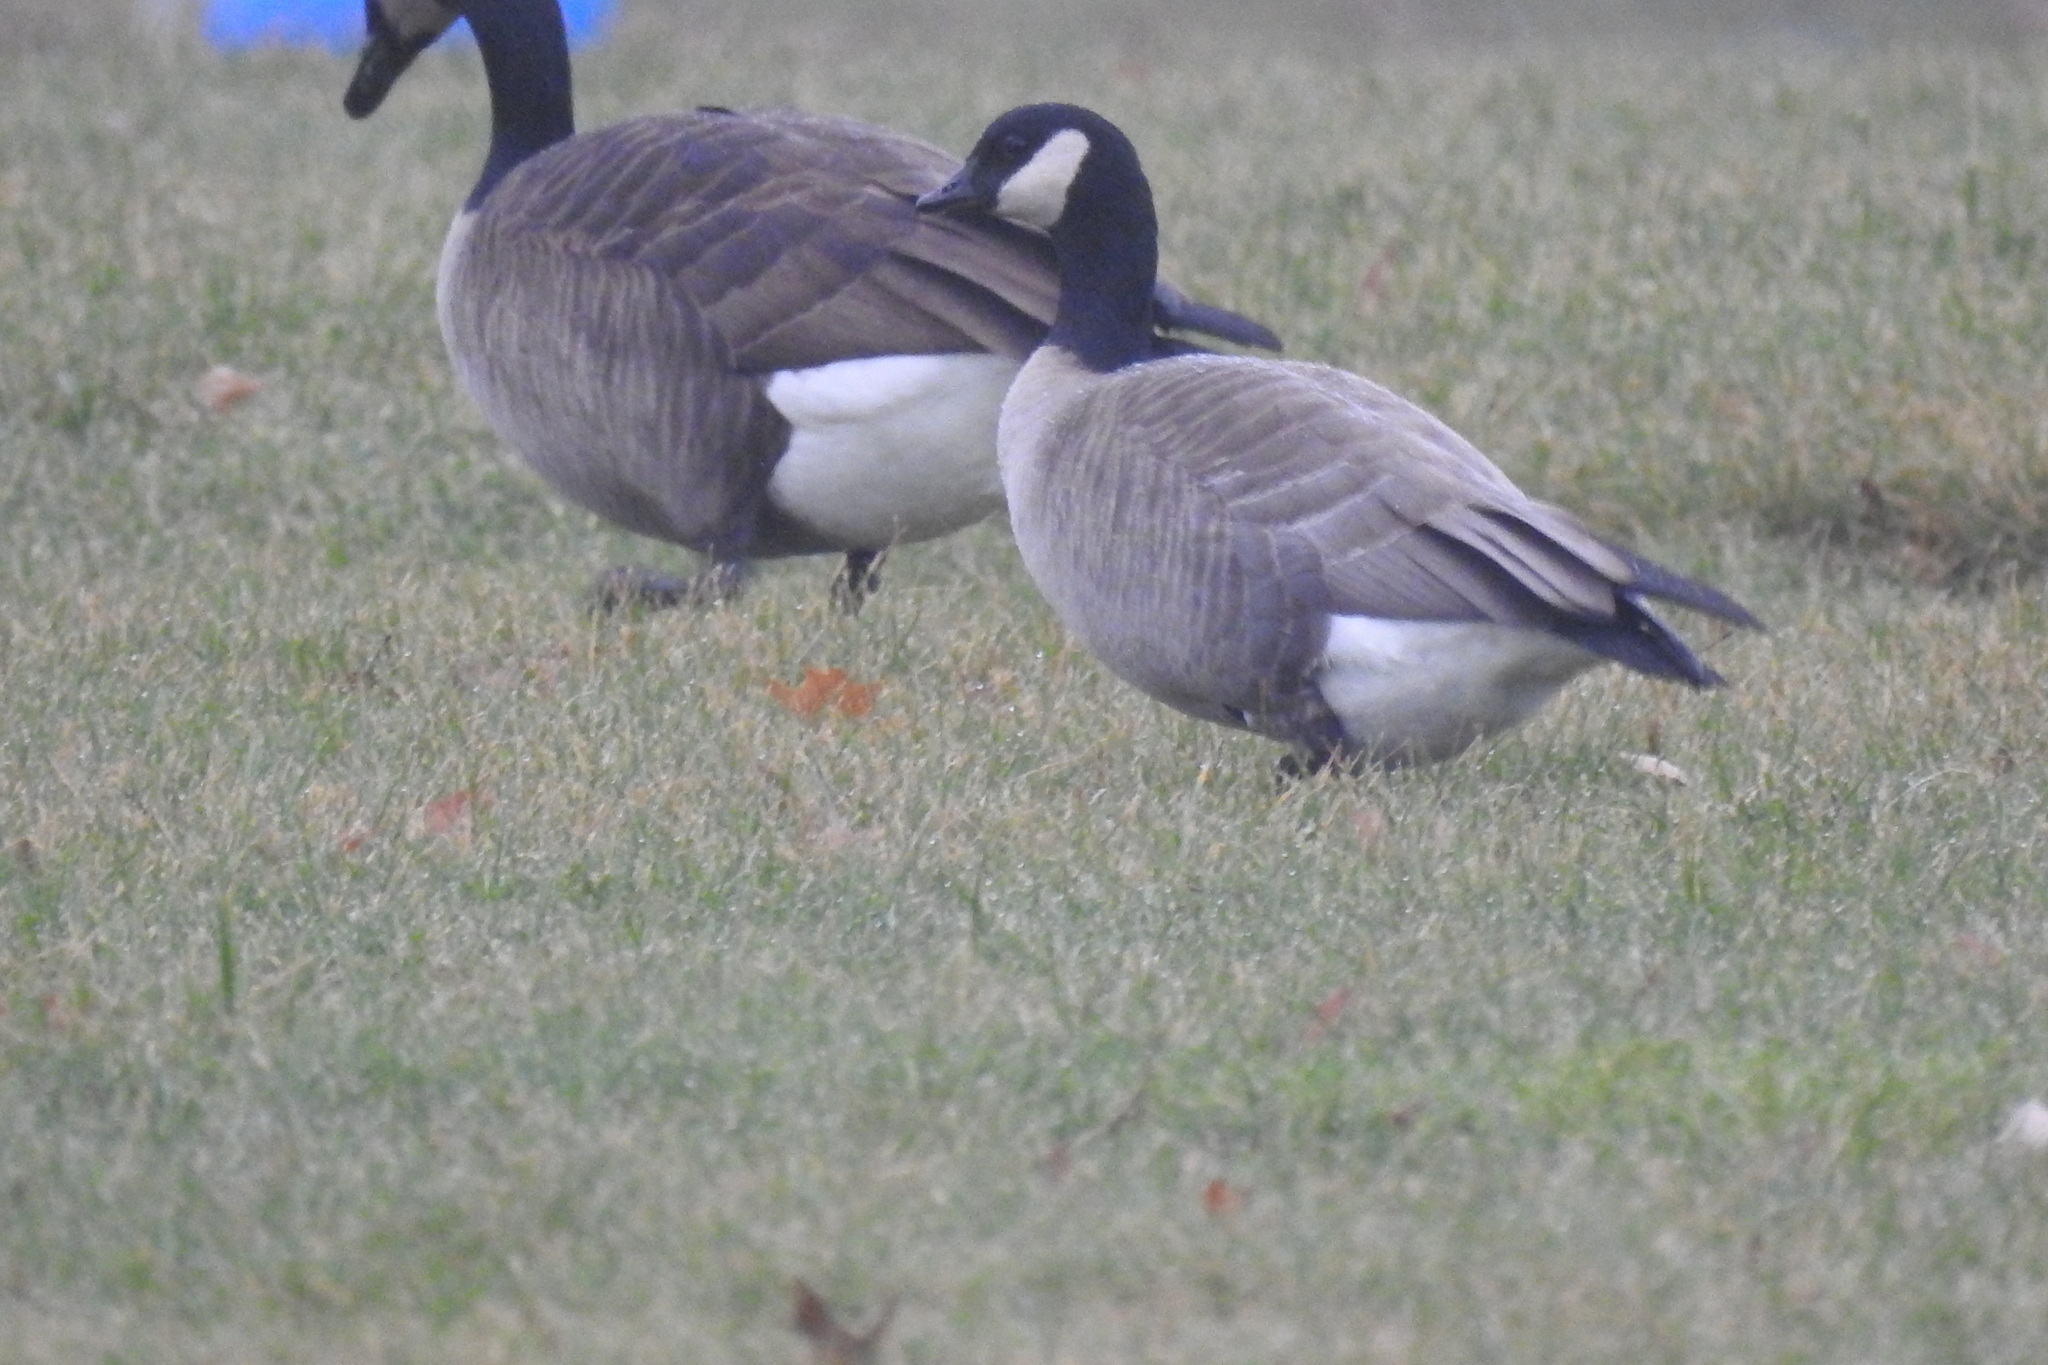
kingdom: Animalia
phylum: Chordata
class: Aves
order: Anseriformes
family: Anatidae
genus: Branta
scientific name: Branta hutchinsii
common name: Cackling goose
